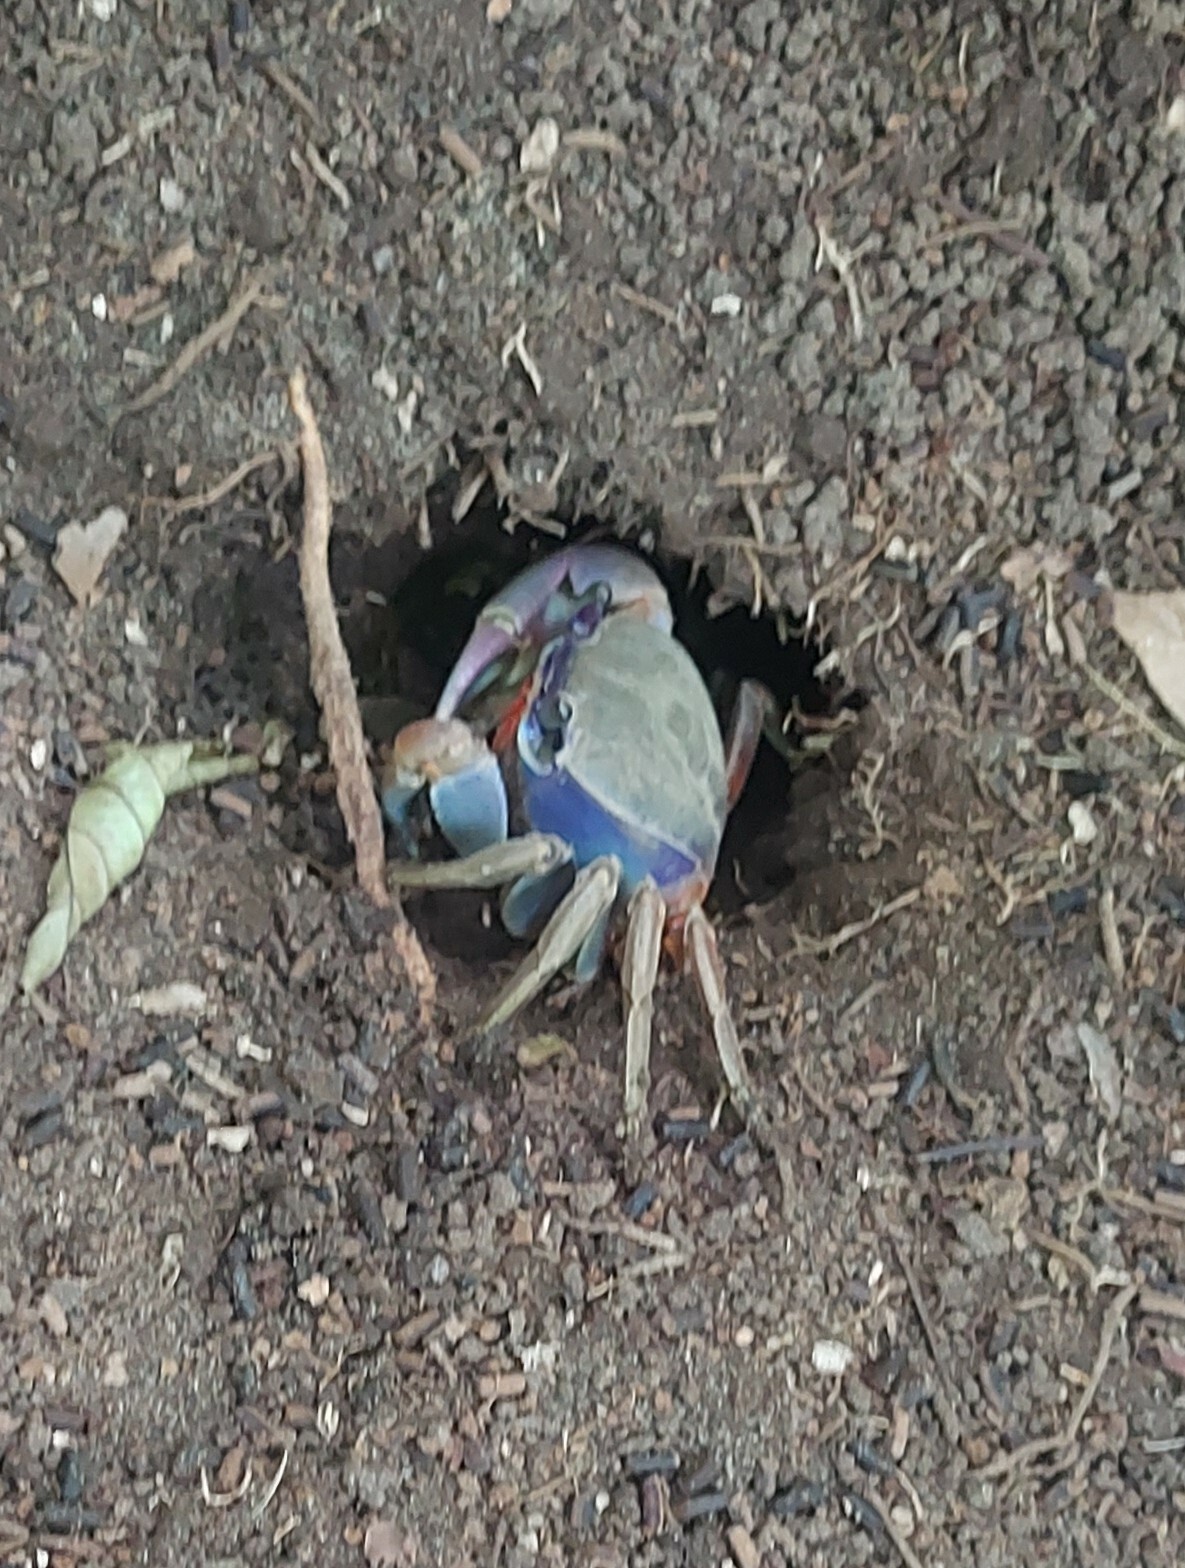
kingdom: Animalia
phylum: Arthropoda
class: Malacostraca
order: Decapoda
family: Gecarcinidae
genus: Cardisoma
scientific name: Cardisoma guanhumi
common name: Great land crab
